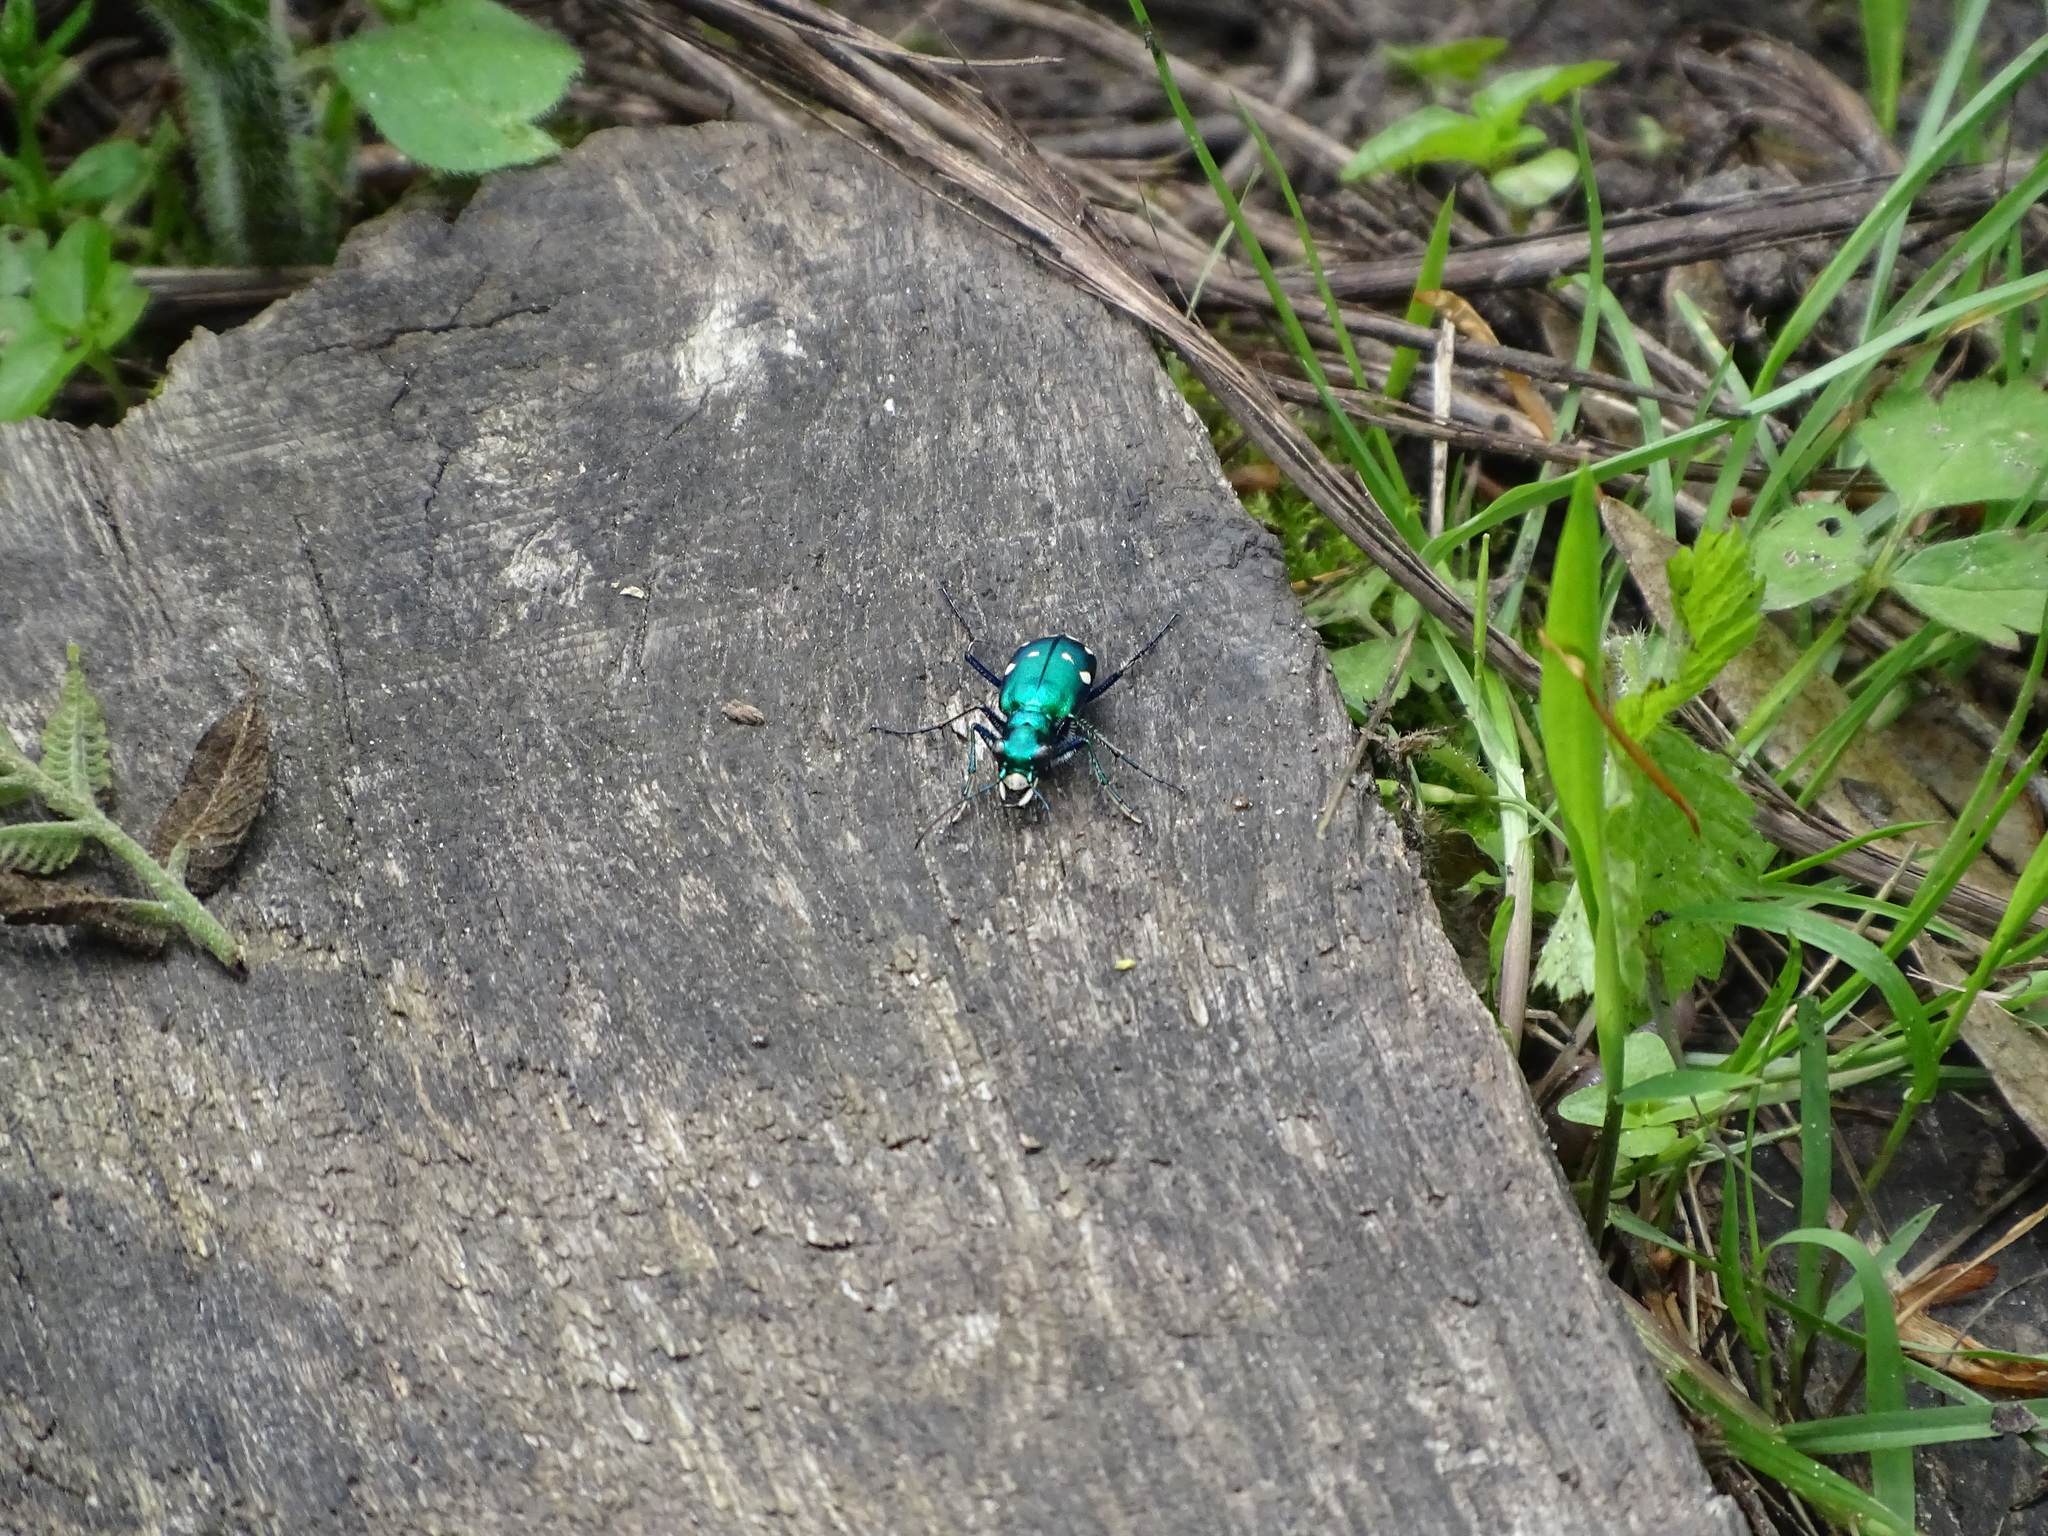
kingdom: Animalia
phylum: Arthropoda
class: Insecta
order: Coleoptera
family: Carabidae
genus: Cicindela
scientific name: Cicindela sexguttata
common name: Six-spotted tiger beetle
